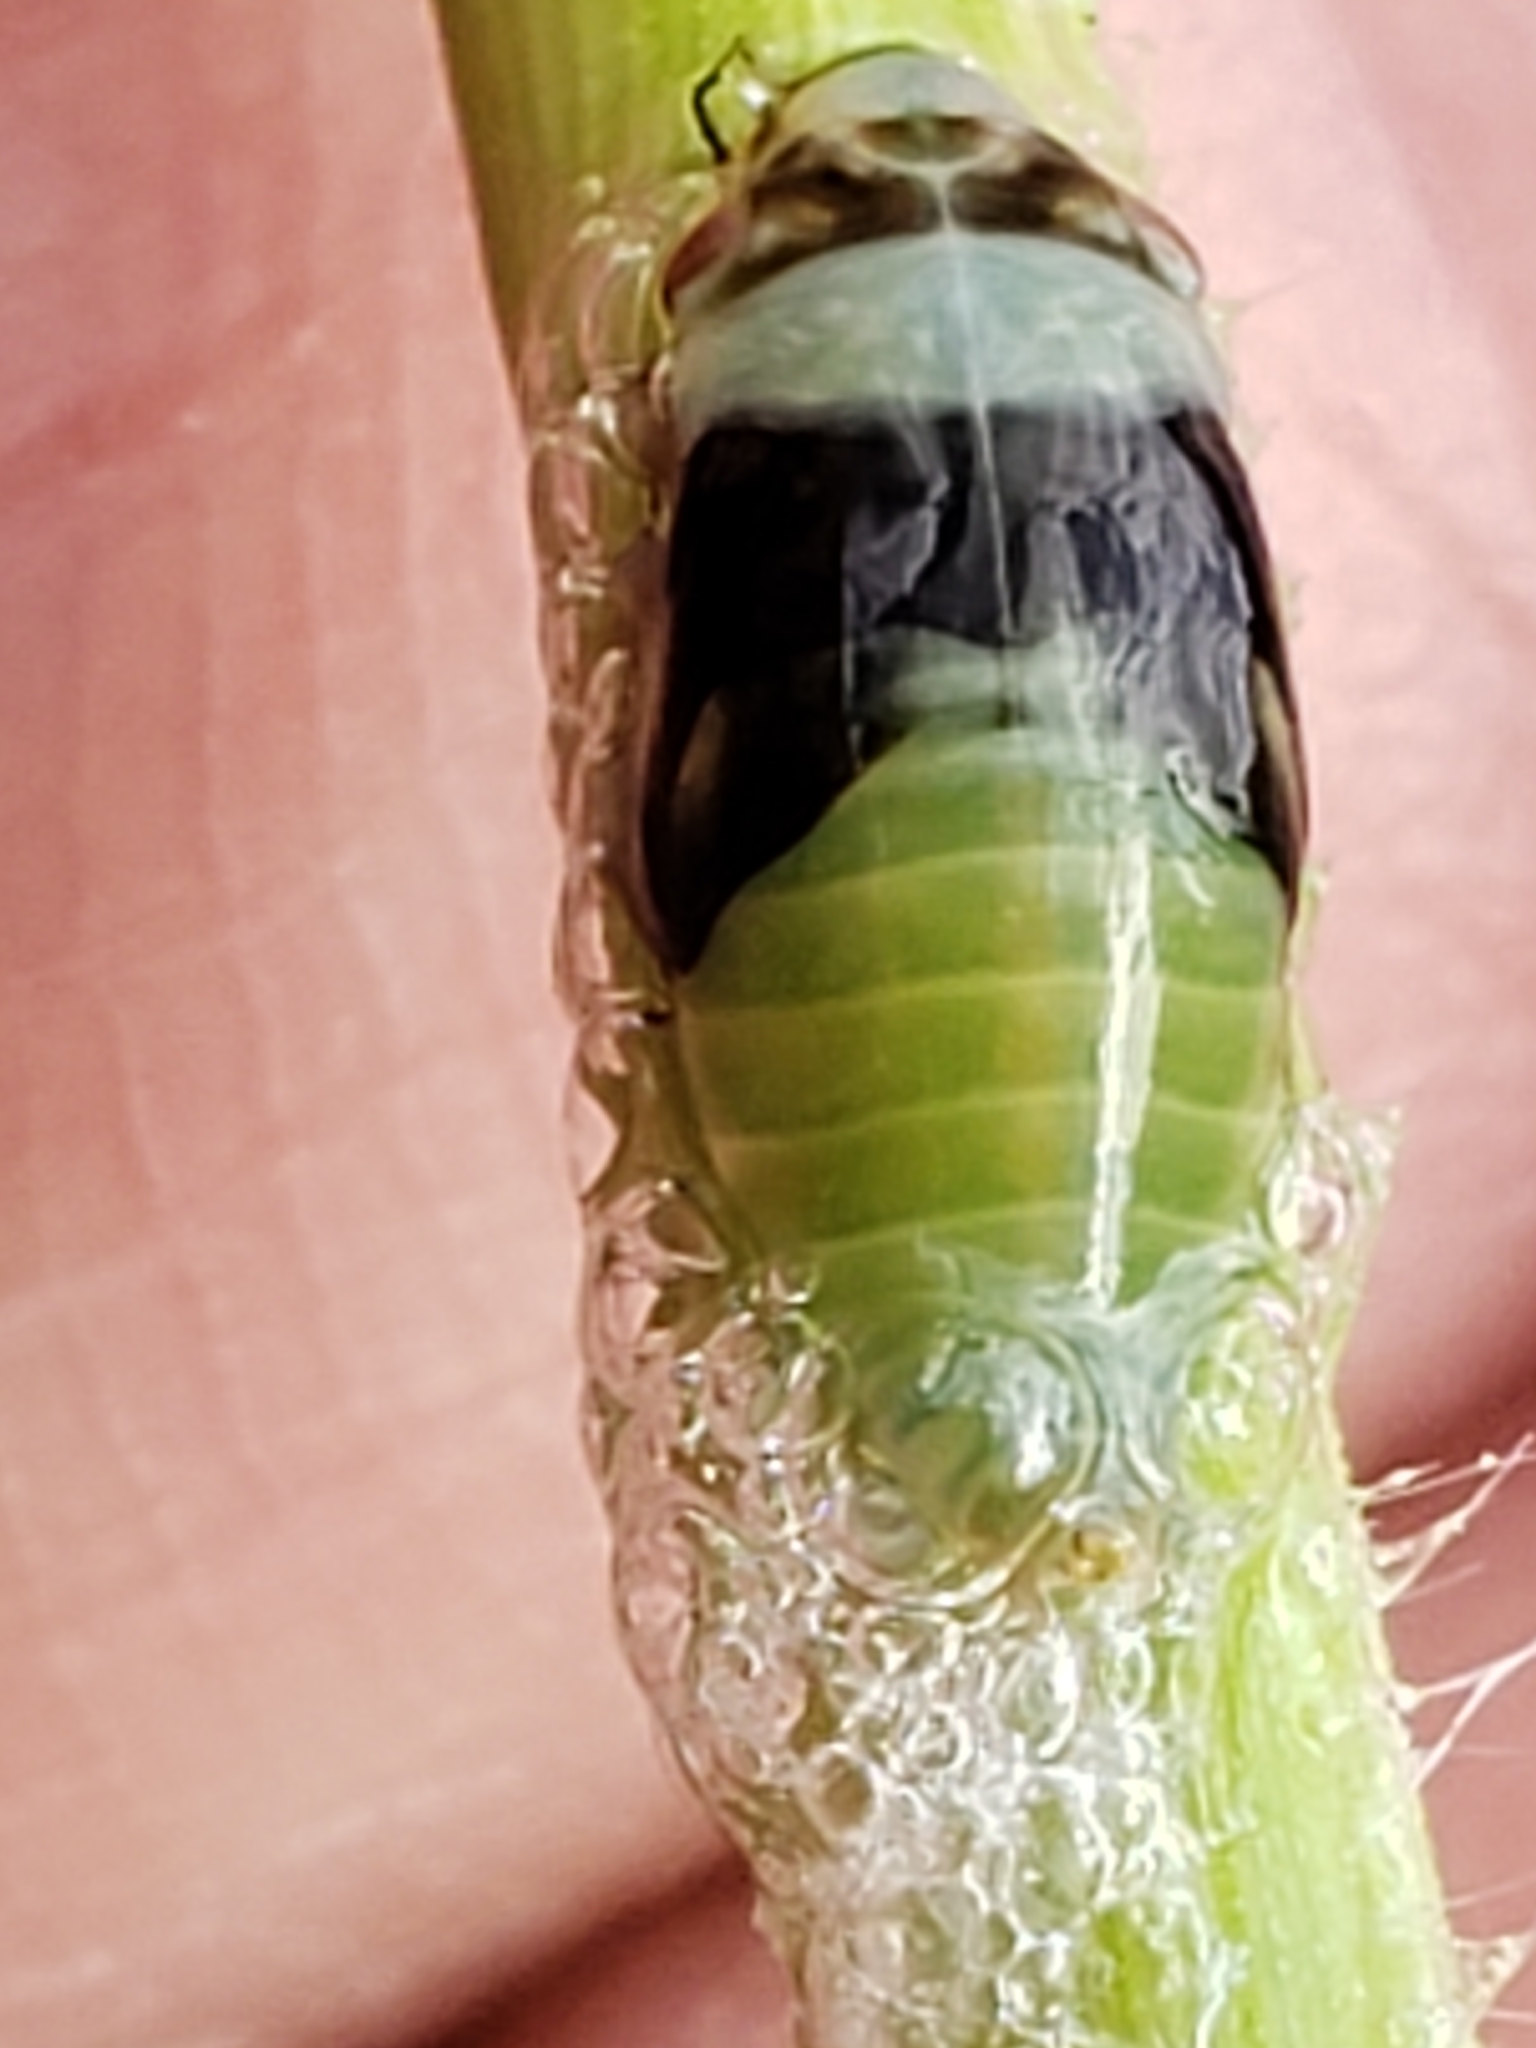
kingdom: Animalia
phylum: Arthropoda
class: Insecta
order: Hemiptera
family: Aphrophoridae
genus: Lepyronia
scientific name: Lepyronia quadrangularis
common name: Diamond-backed spittlebug
